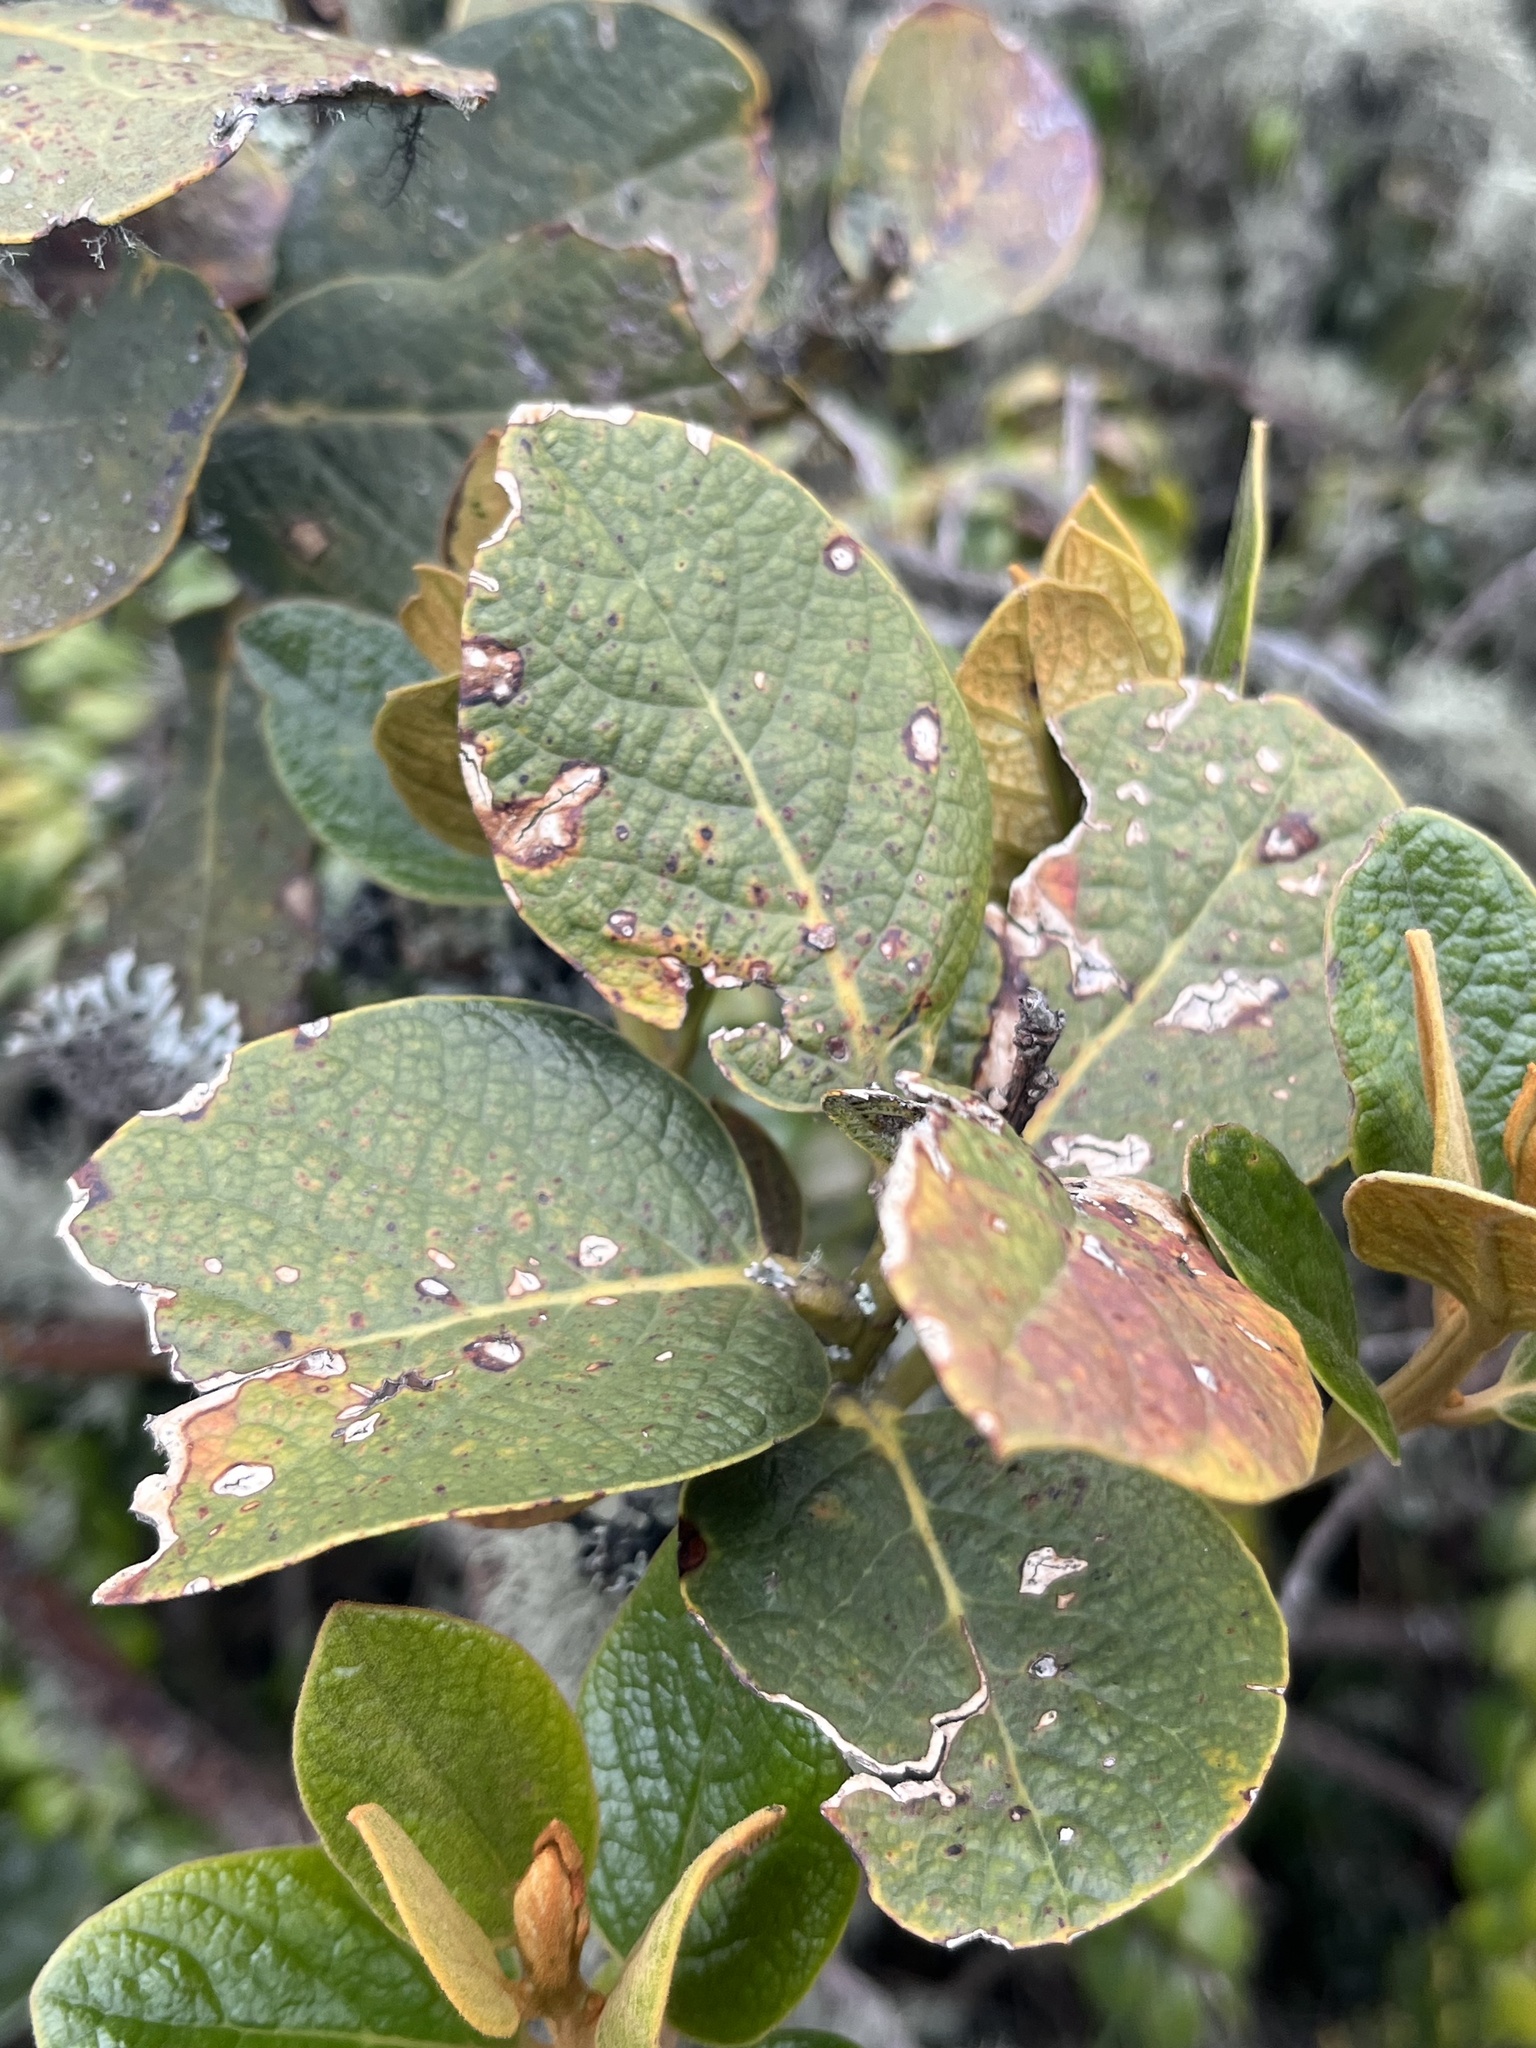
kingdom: Plantae
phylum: Tracheophyta
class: Magnoliopsida
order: Laurales
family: Lauraceae
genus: Persea
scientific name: Persea ferruginea
